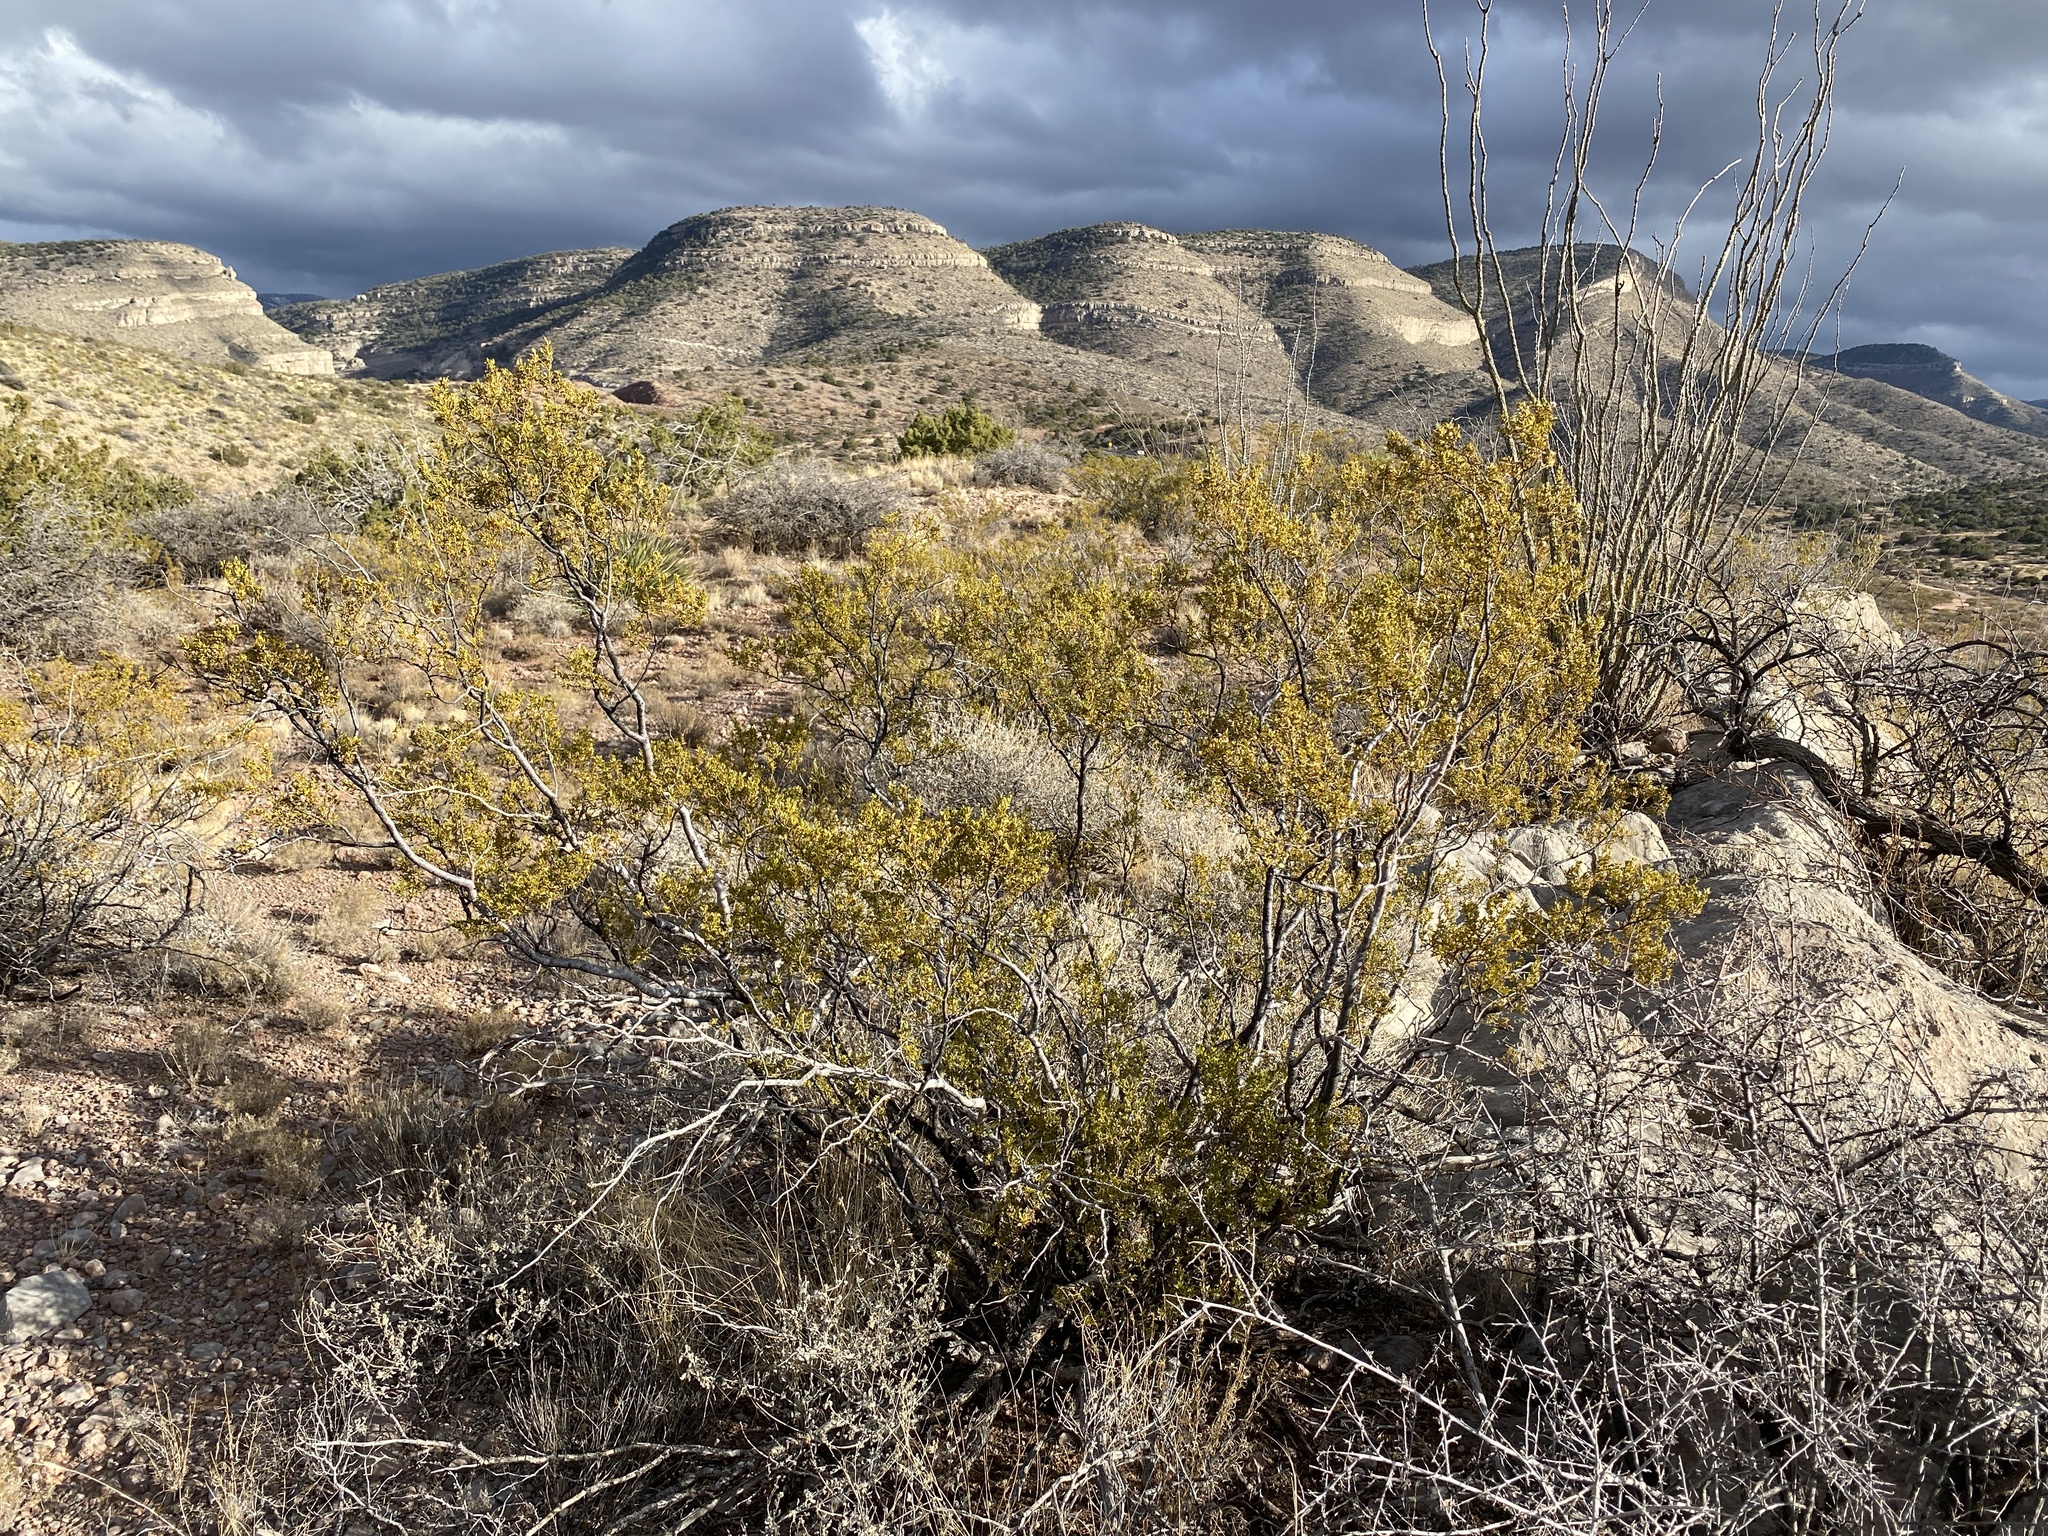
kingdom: Plantae
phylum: Tracheophyta
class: Magnoliopsida
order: Zygophyllales
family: Zygophyllaceae
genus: Larrea
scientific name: Larrea tridentata
